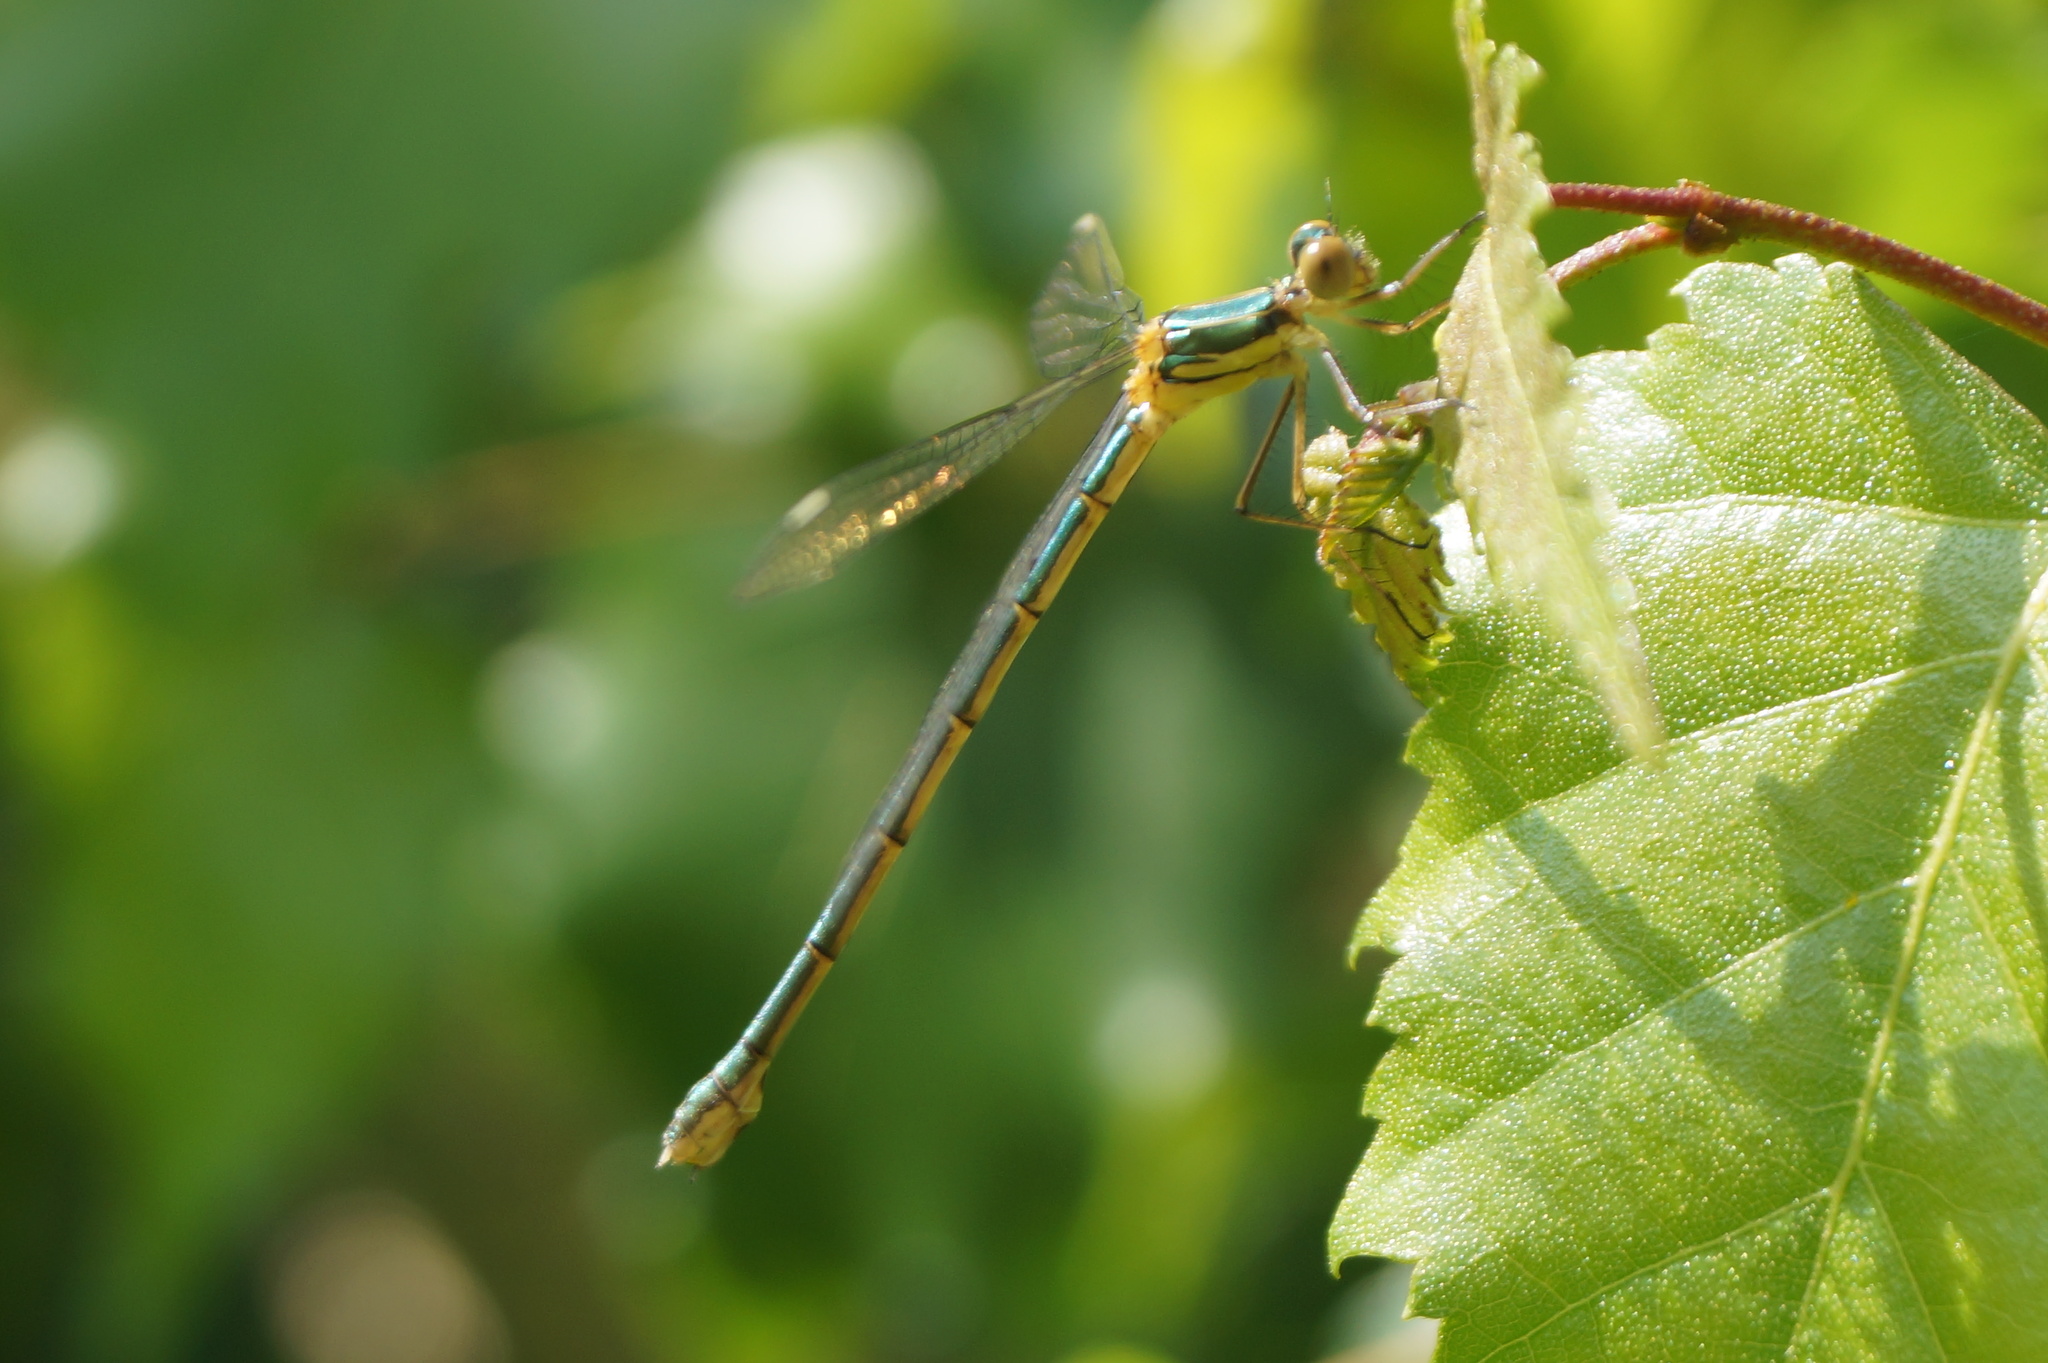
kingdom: Animalia
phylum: Arthropoda
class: Insecta
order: Odonata
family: Lestidae
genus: Chalcolestes
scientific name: Chalcolestes viridis
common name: Green emerald damselfly
